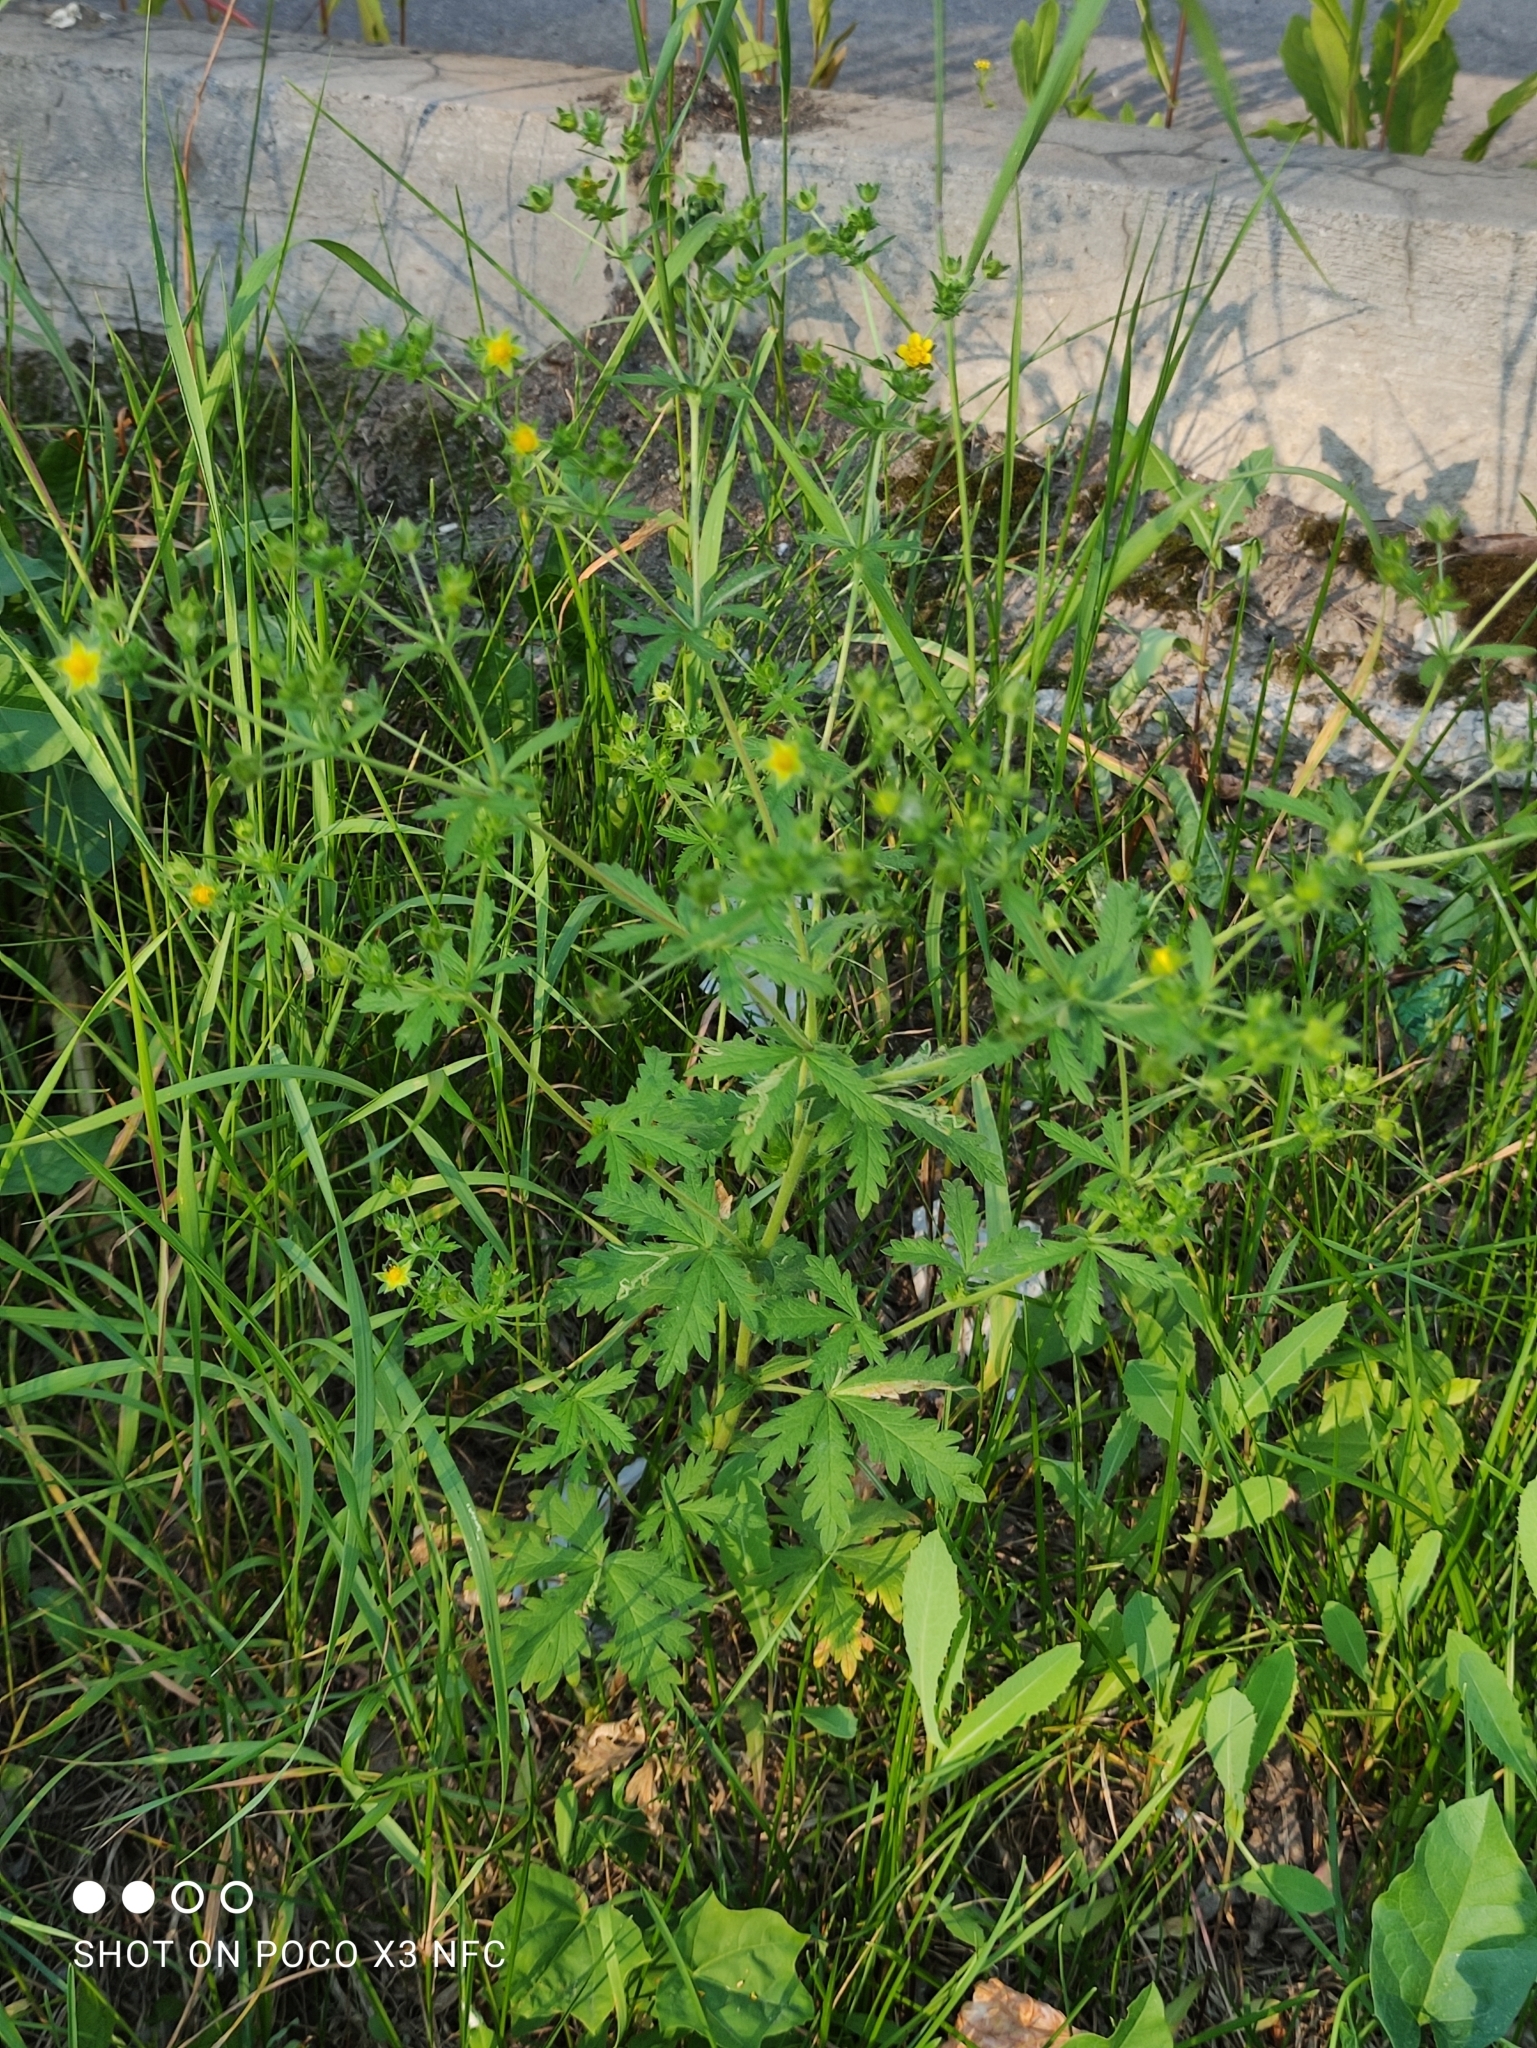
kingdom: Plantae
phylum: Tracheophyta
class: Magnoliopsida
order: Rosales
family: Rosaceae
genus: Potentilla
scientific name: Potentilla intermedia
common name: Downy cinquefoil
